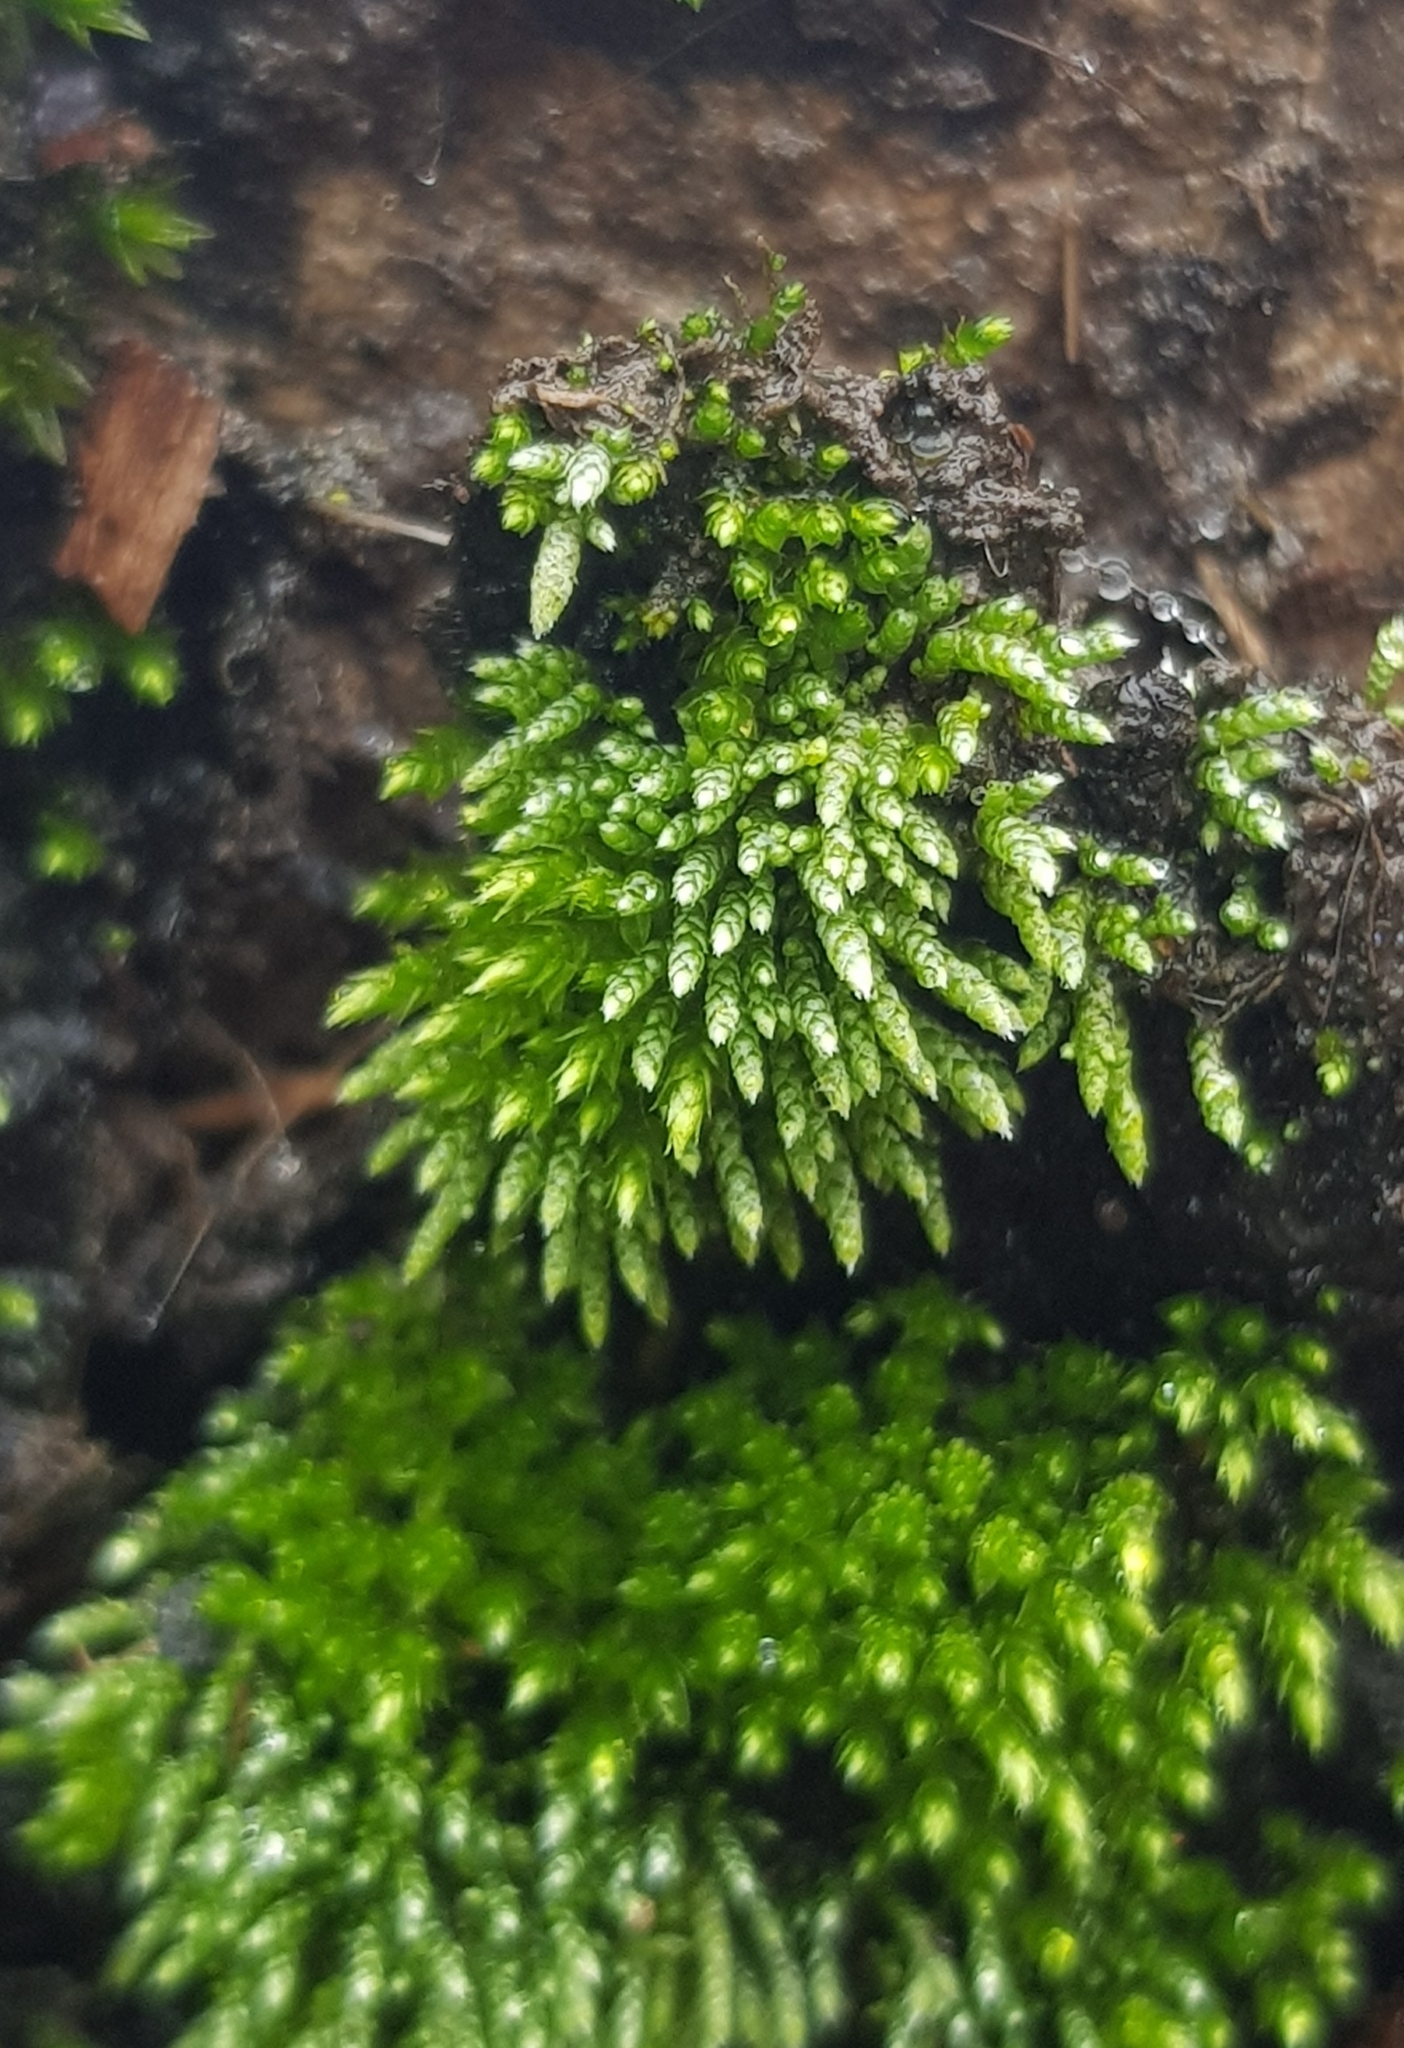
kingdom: Plantae
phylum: Bryophyta
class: Bryopsida
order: Bryales
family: Bryaceae
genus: Bryum
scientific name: Bryum argenteum
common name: Silver-moss
